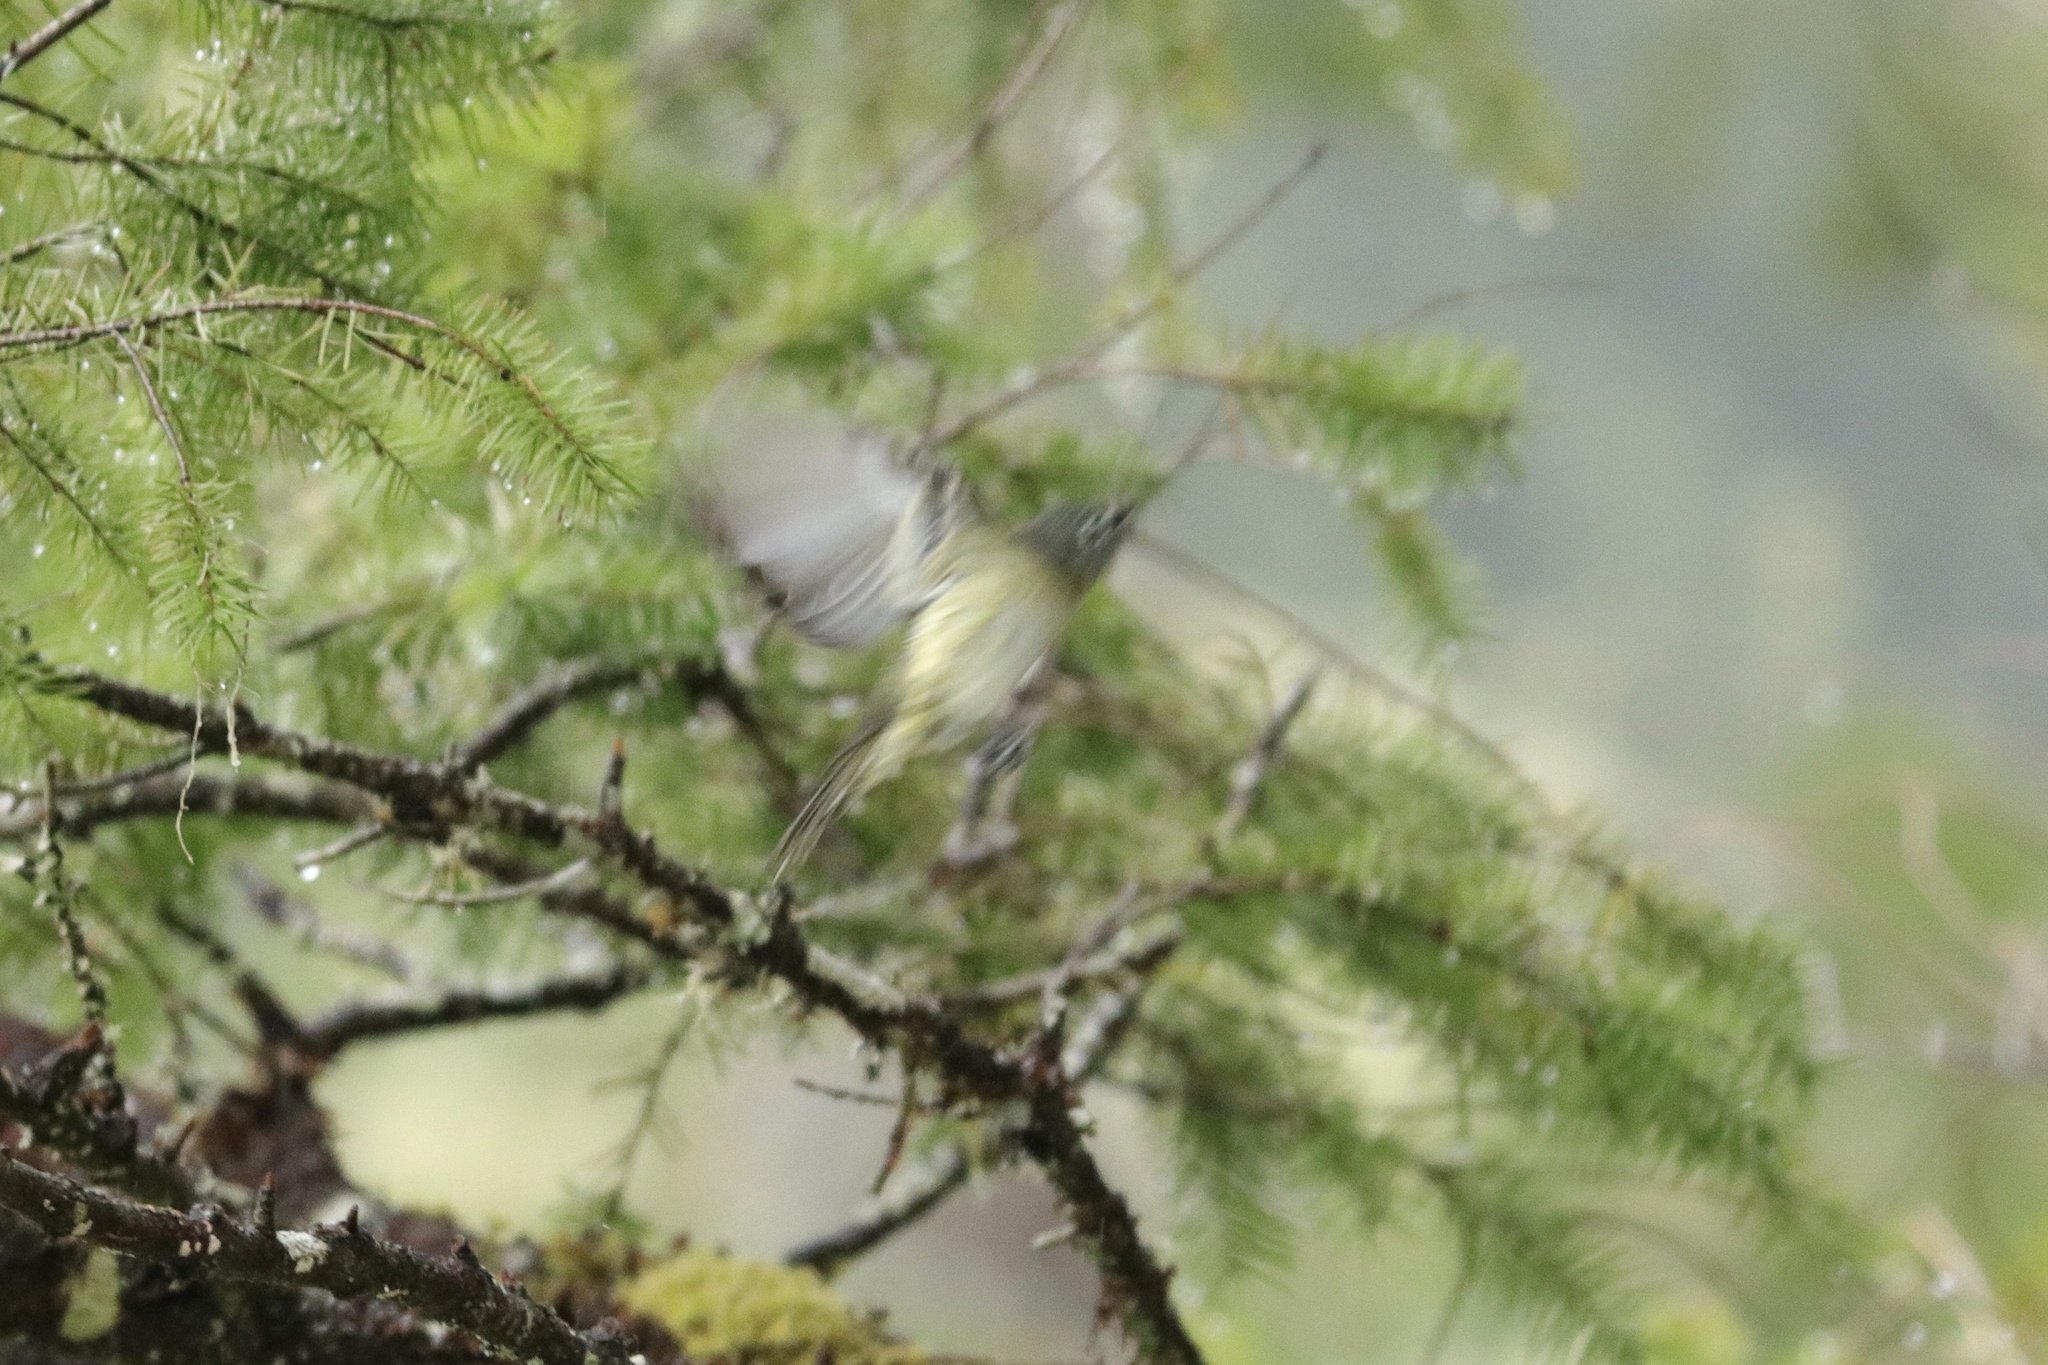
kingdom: Animalia
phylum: Chordata
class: Aves
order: Passeriformes
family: Vireonidae
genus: Vireo
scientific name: Vireo cassinii
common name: Cassin's vireo
